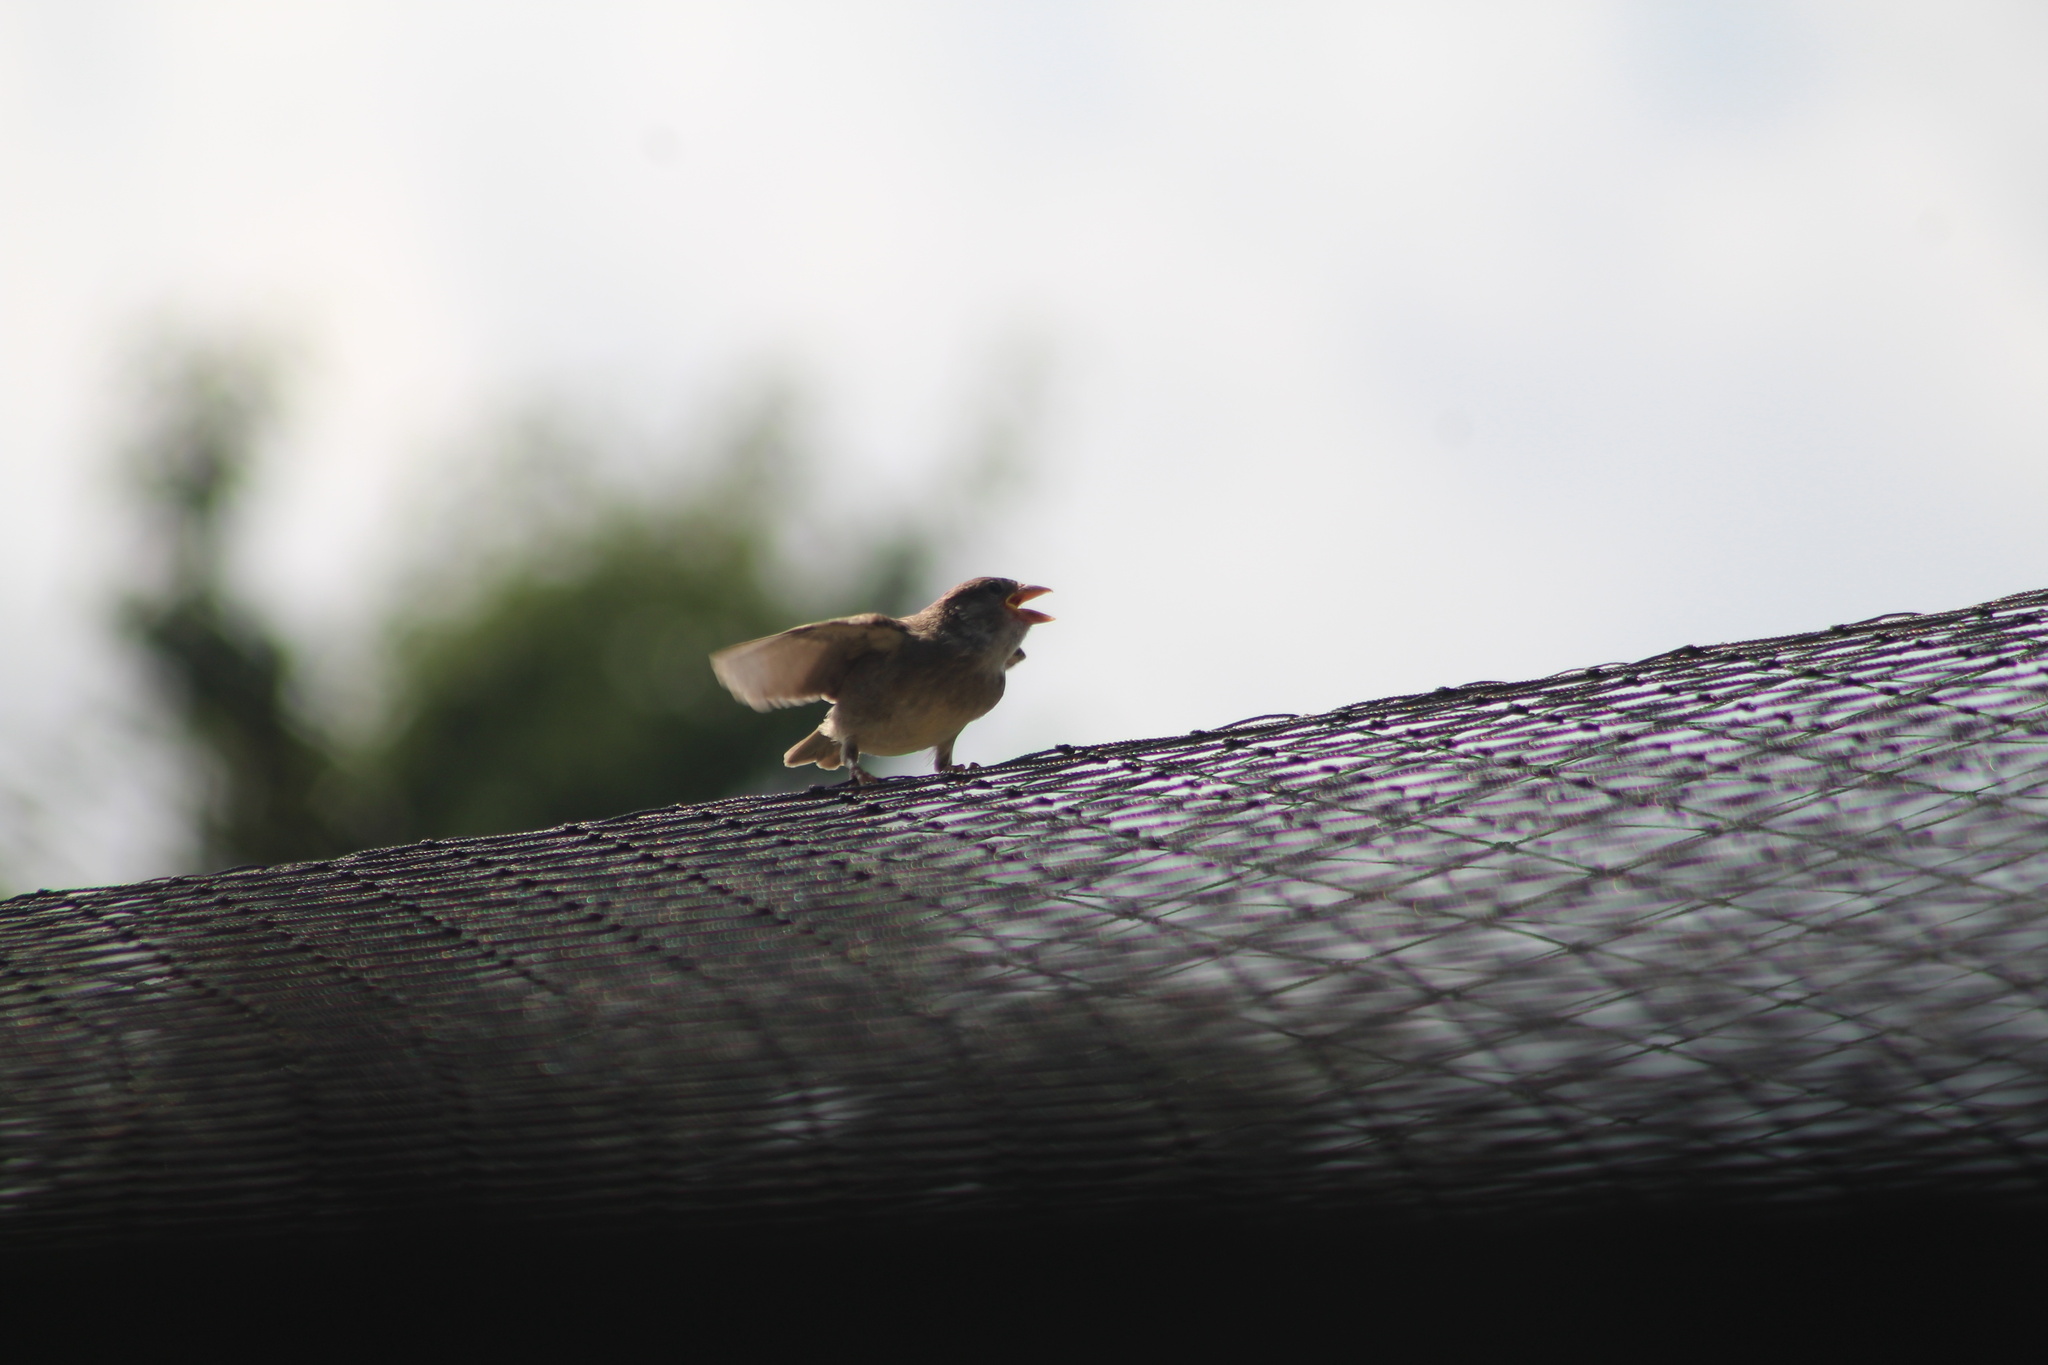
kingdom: Animalia
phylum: Chordata
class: Aves
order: Passeriformes
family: Passeridae
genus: Passer
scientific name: Passer domesticus
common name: House sparrow
